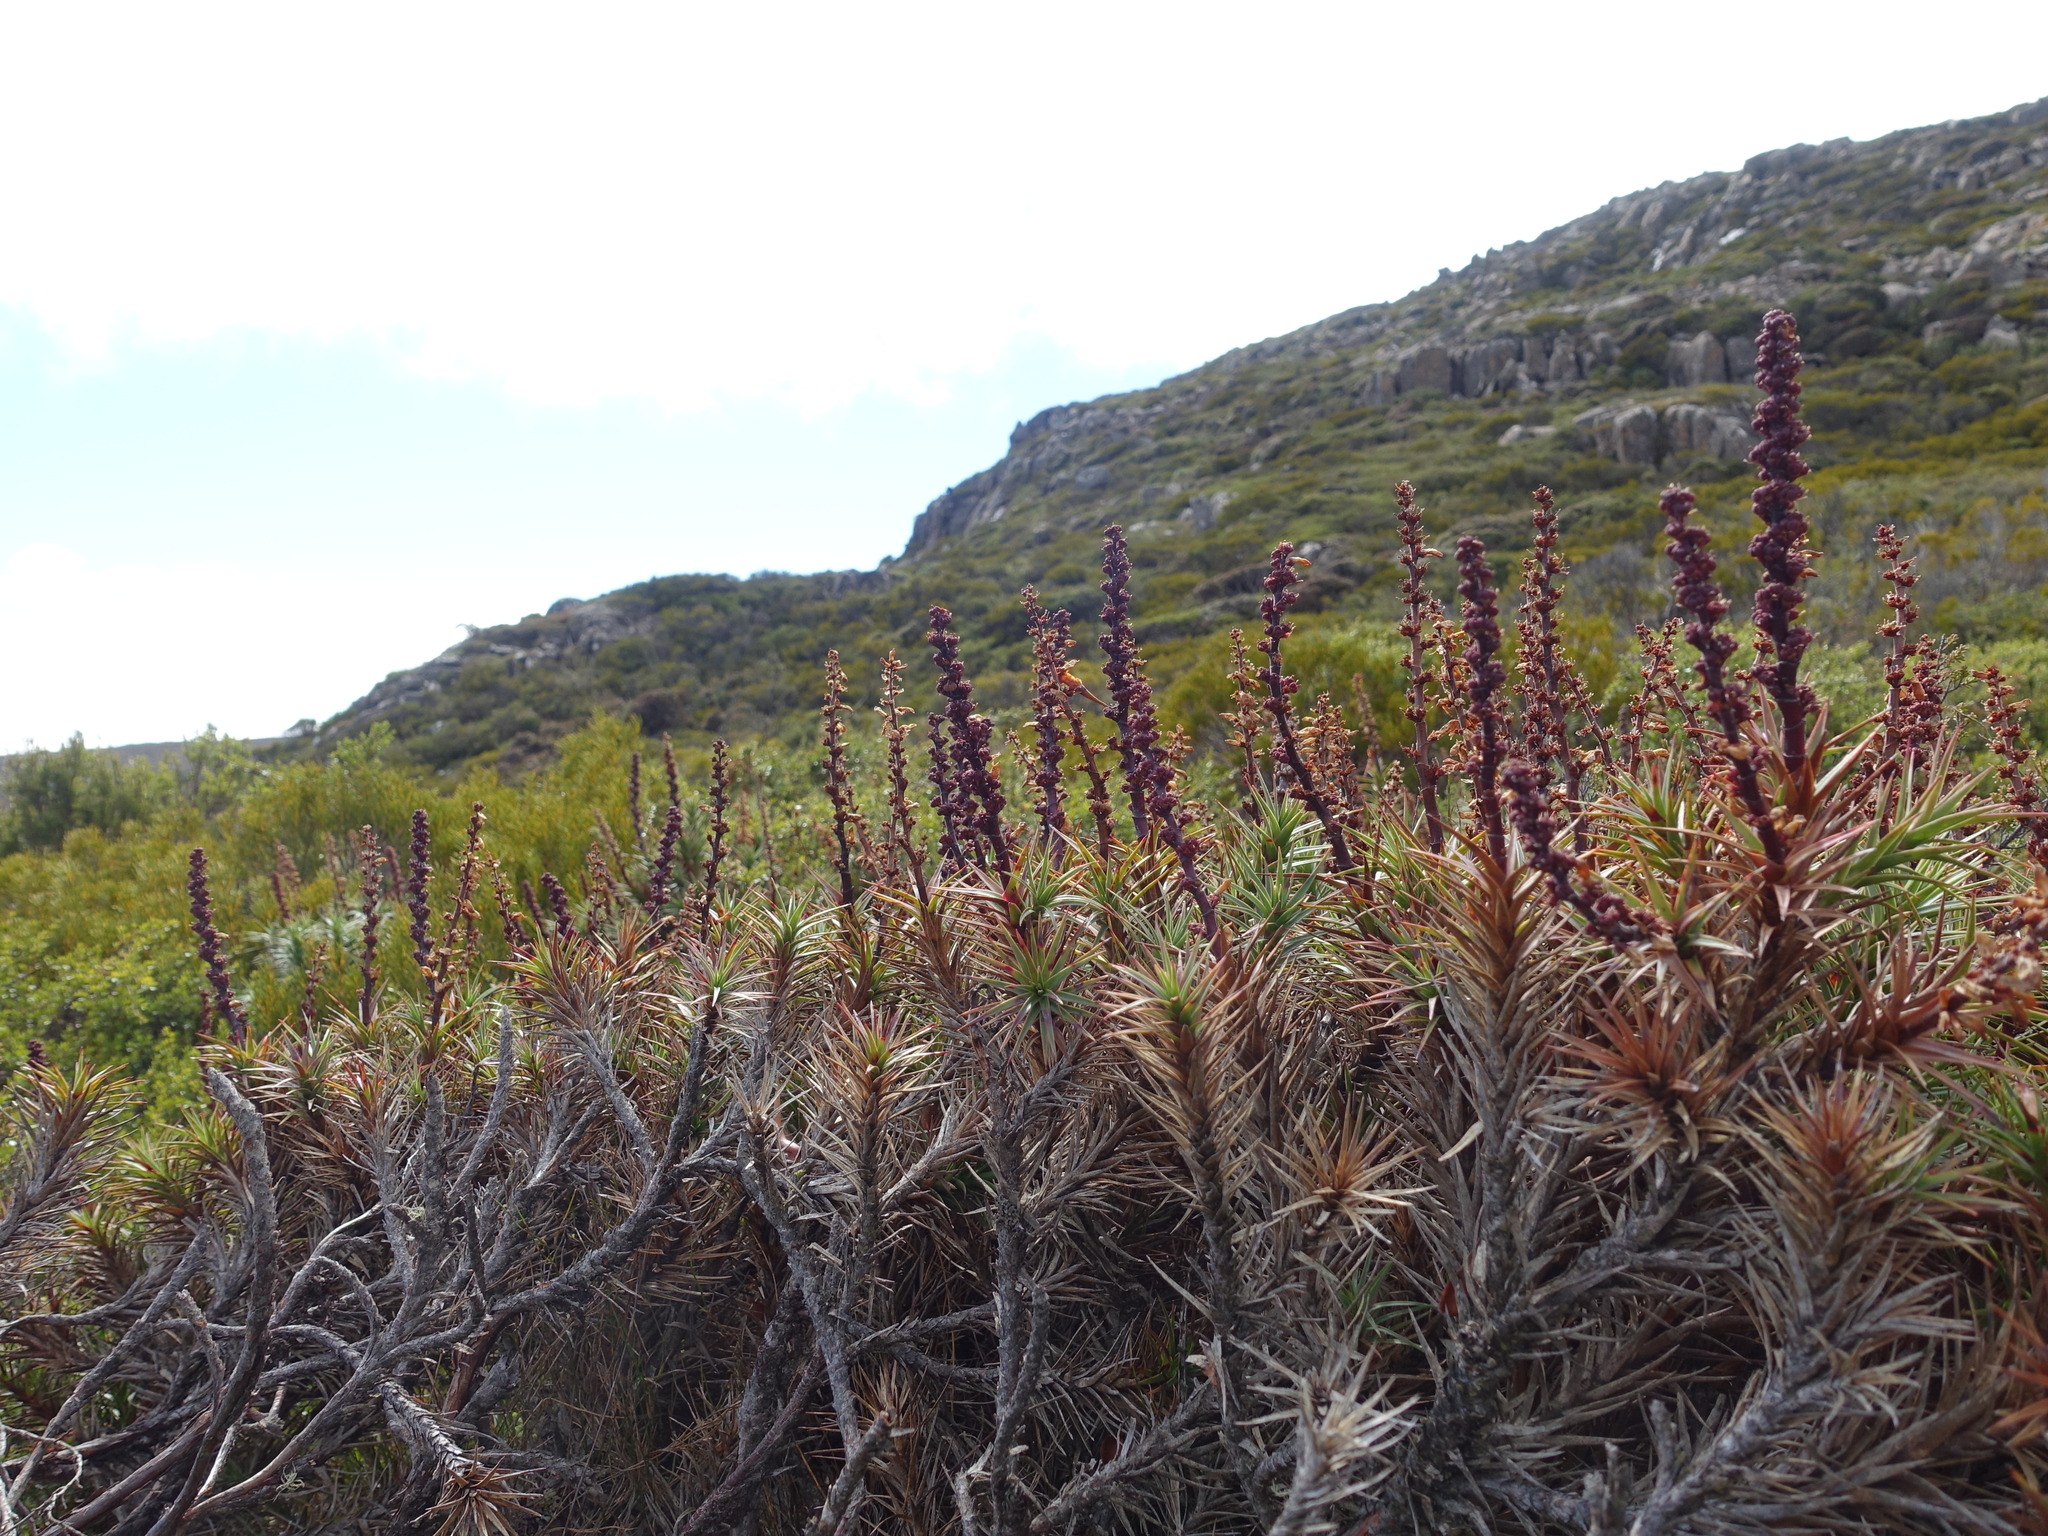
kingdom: Plantae
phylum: Tracheophyta
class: Magnoliopsida
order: Ericales
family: Ericaceae
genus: Dracophyllum
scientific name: Dracophyllum persistentifolium
